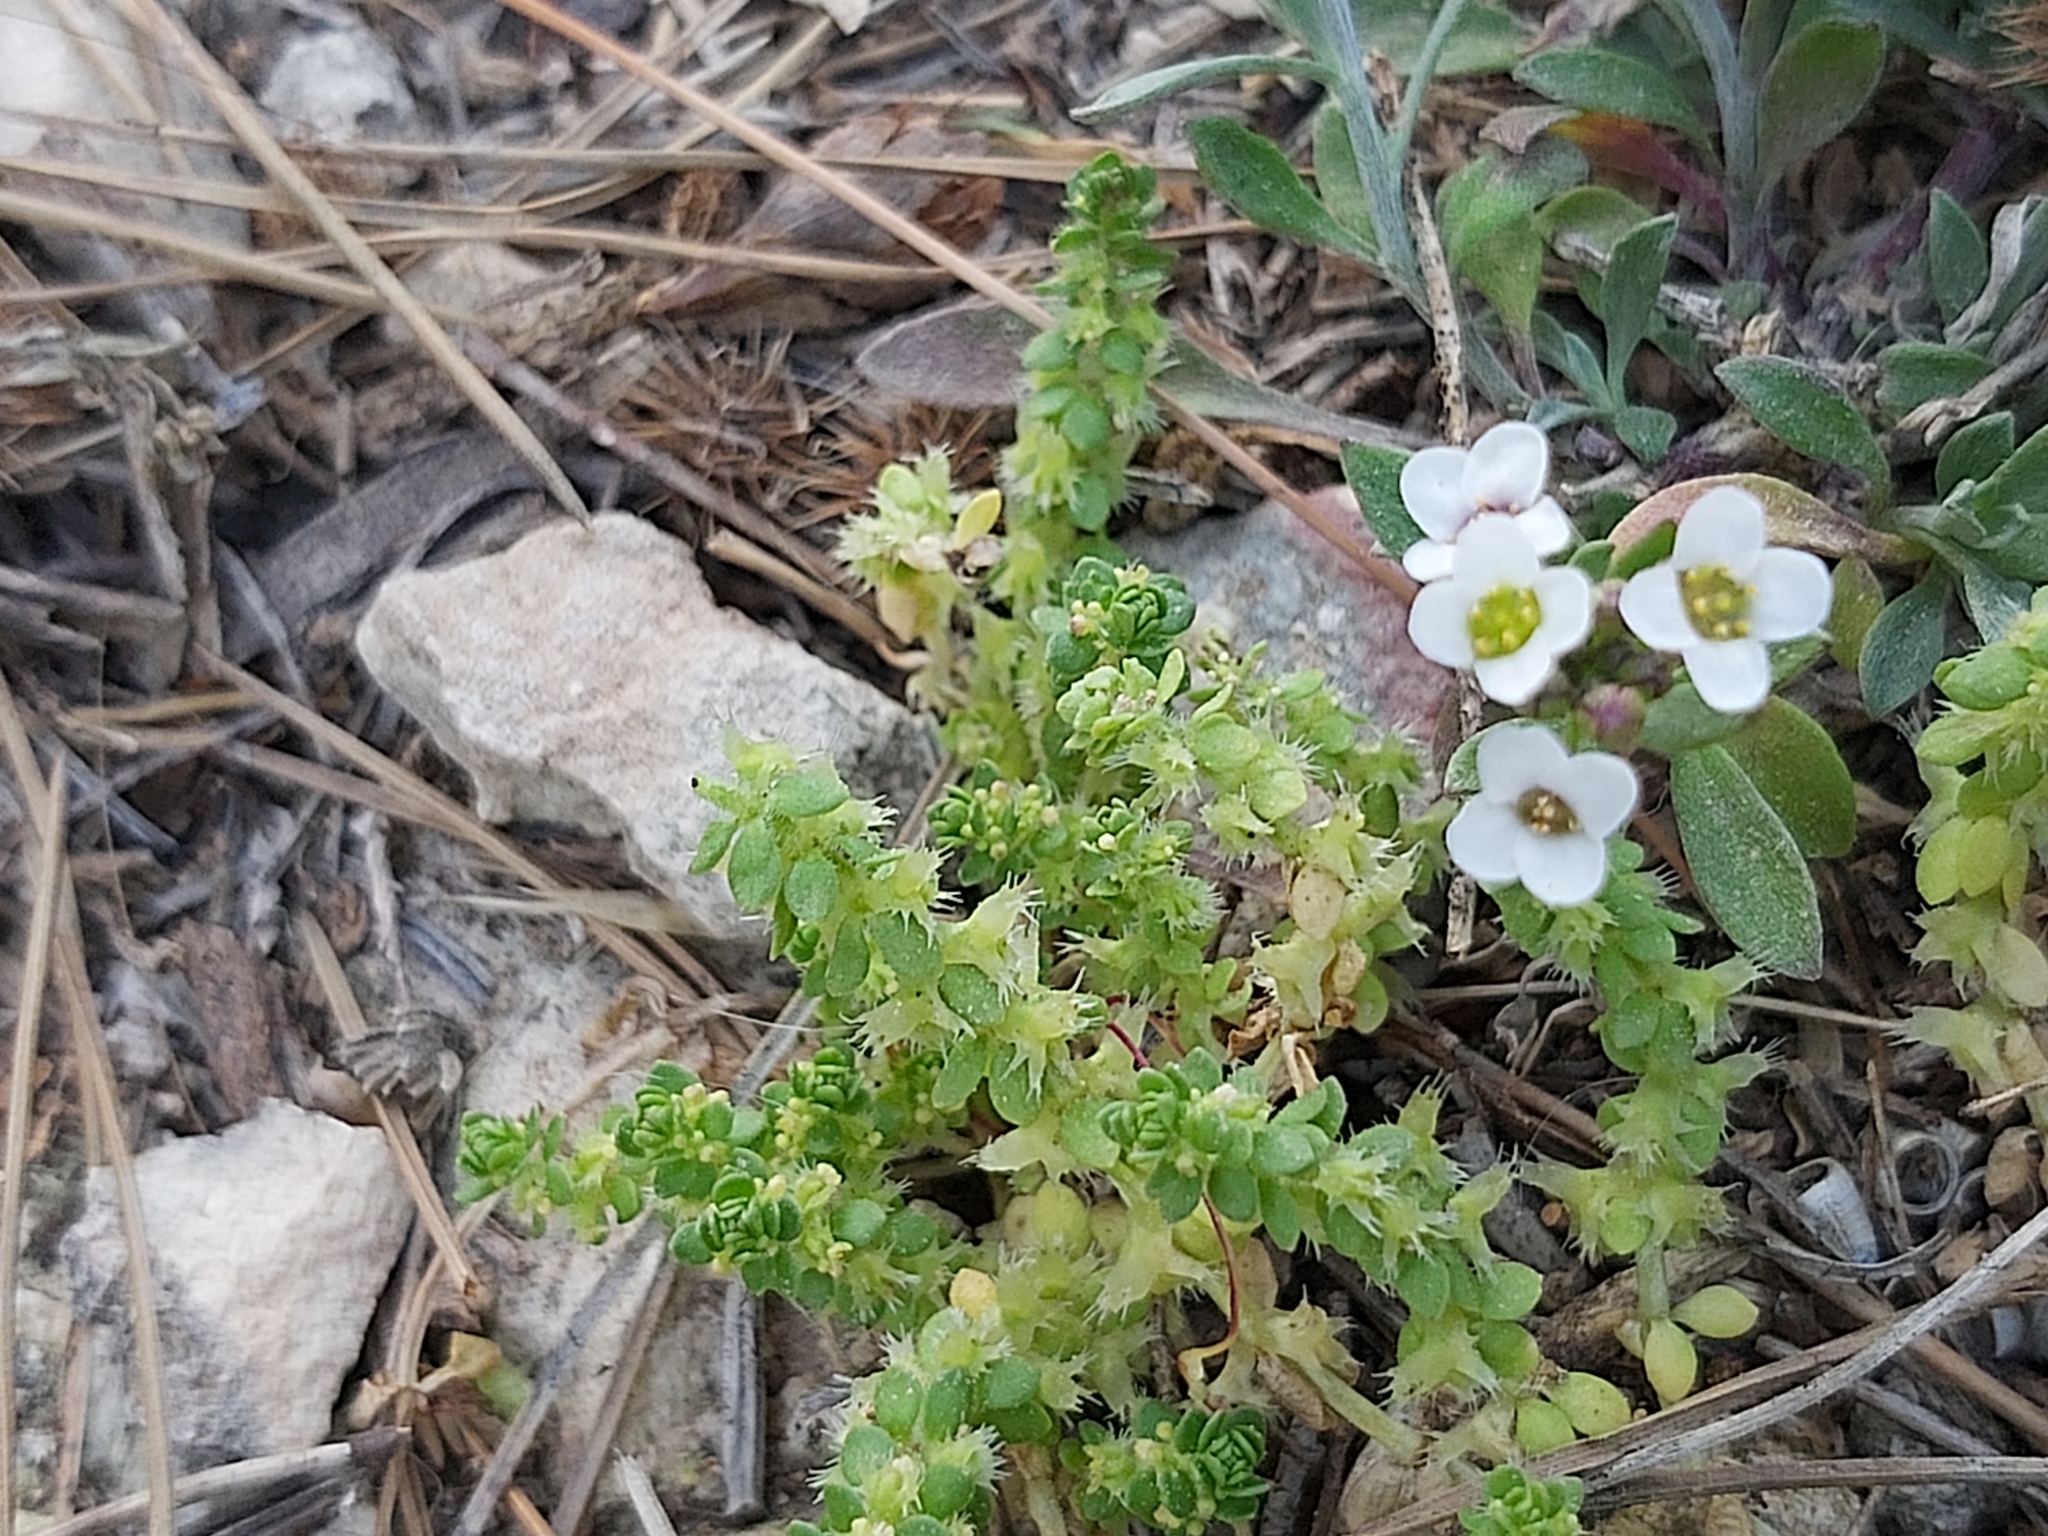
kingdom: Plantae
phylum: Tracheophyta
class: Magnoliopsida
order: Gentianales
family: Rubiaceae
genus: Valantia
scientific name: Valantia muralis
